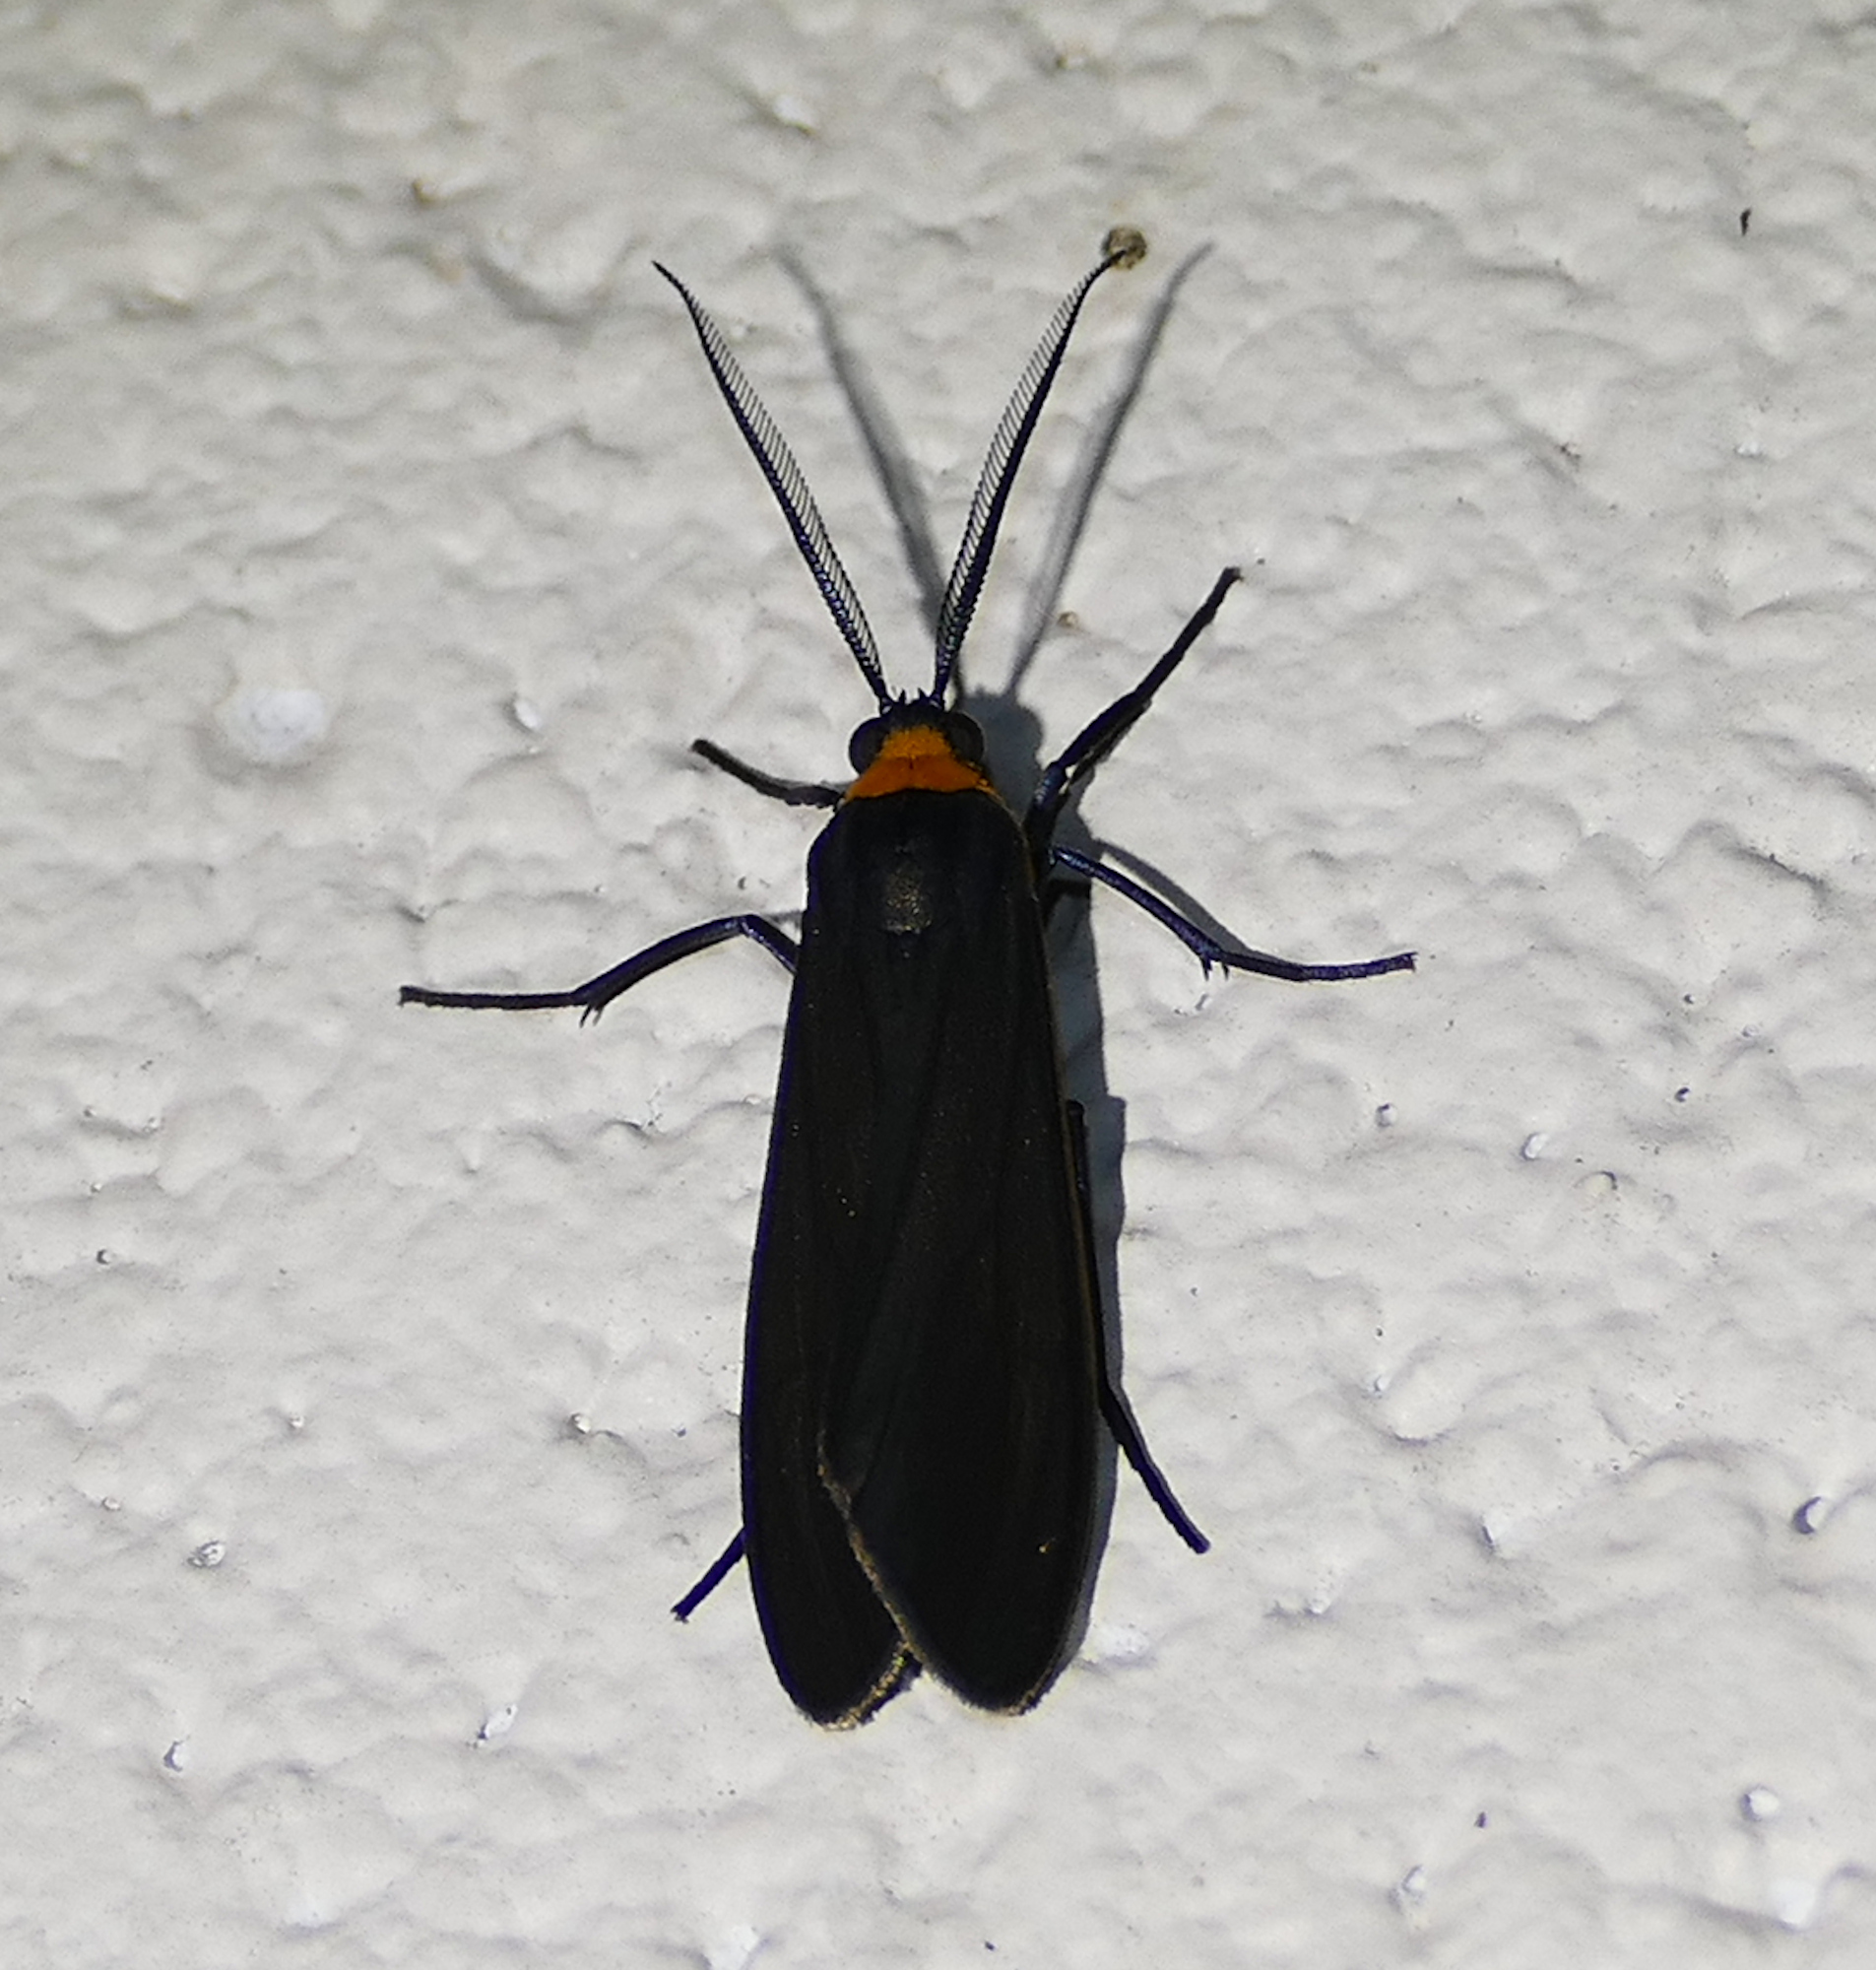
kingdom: Animalia
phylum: Arthropoda
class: Insecta
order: Lepidoptera
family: Erebidae
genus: Cisseps
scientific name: Cisseps fulvicollis
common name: Yellow-collared scape moth
